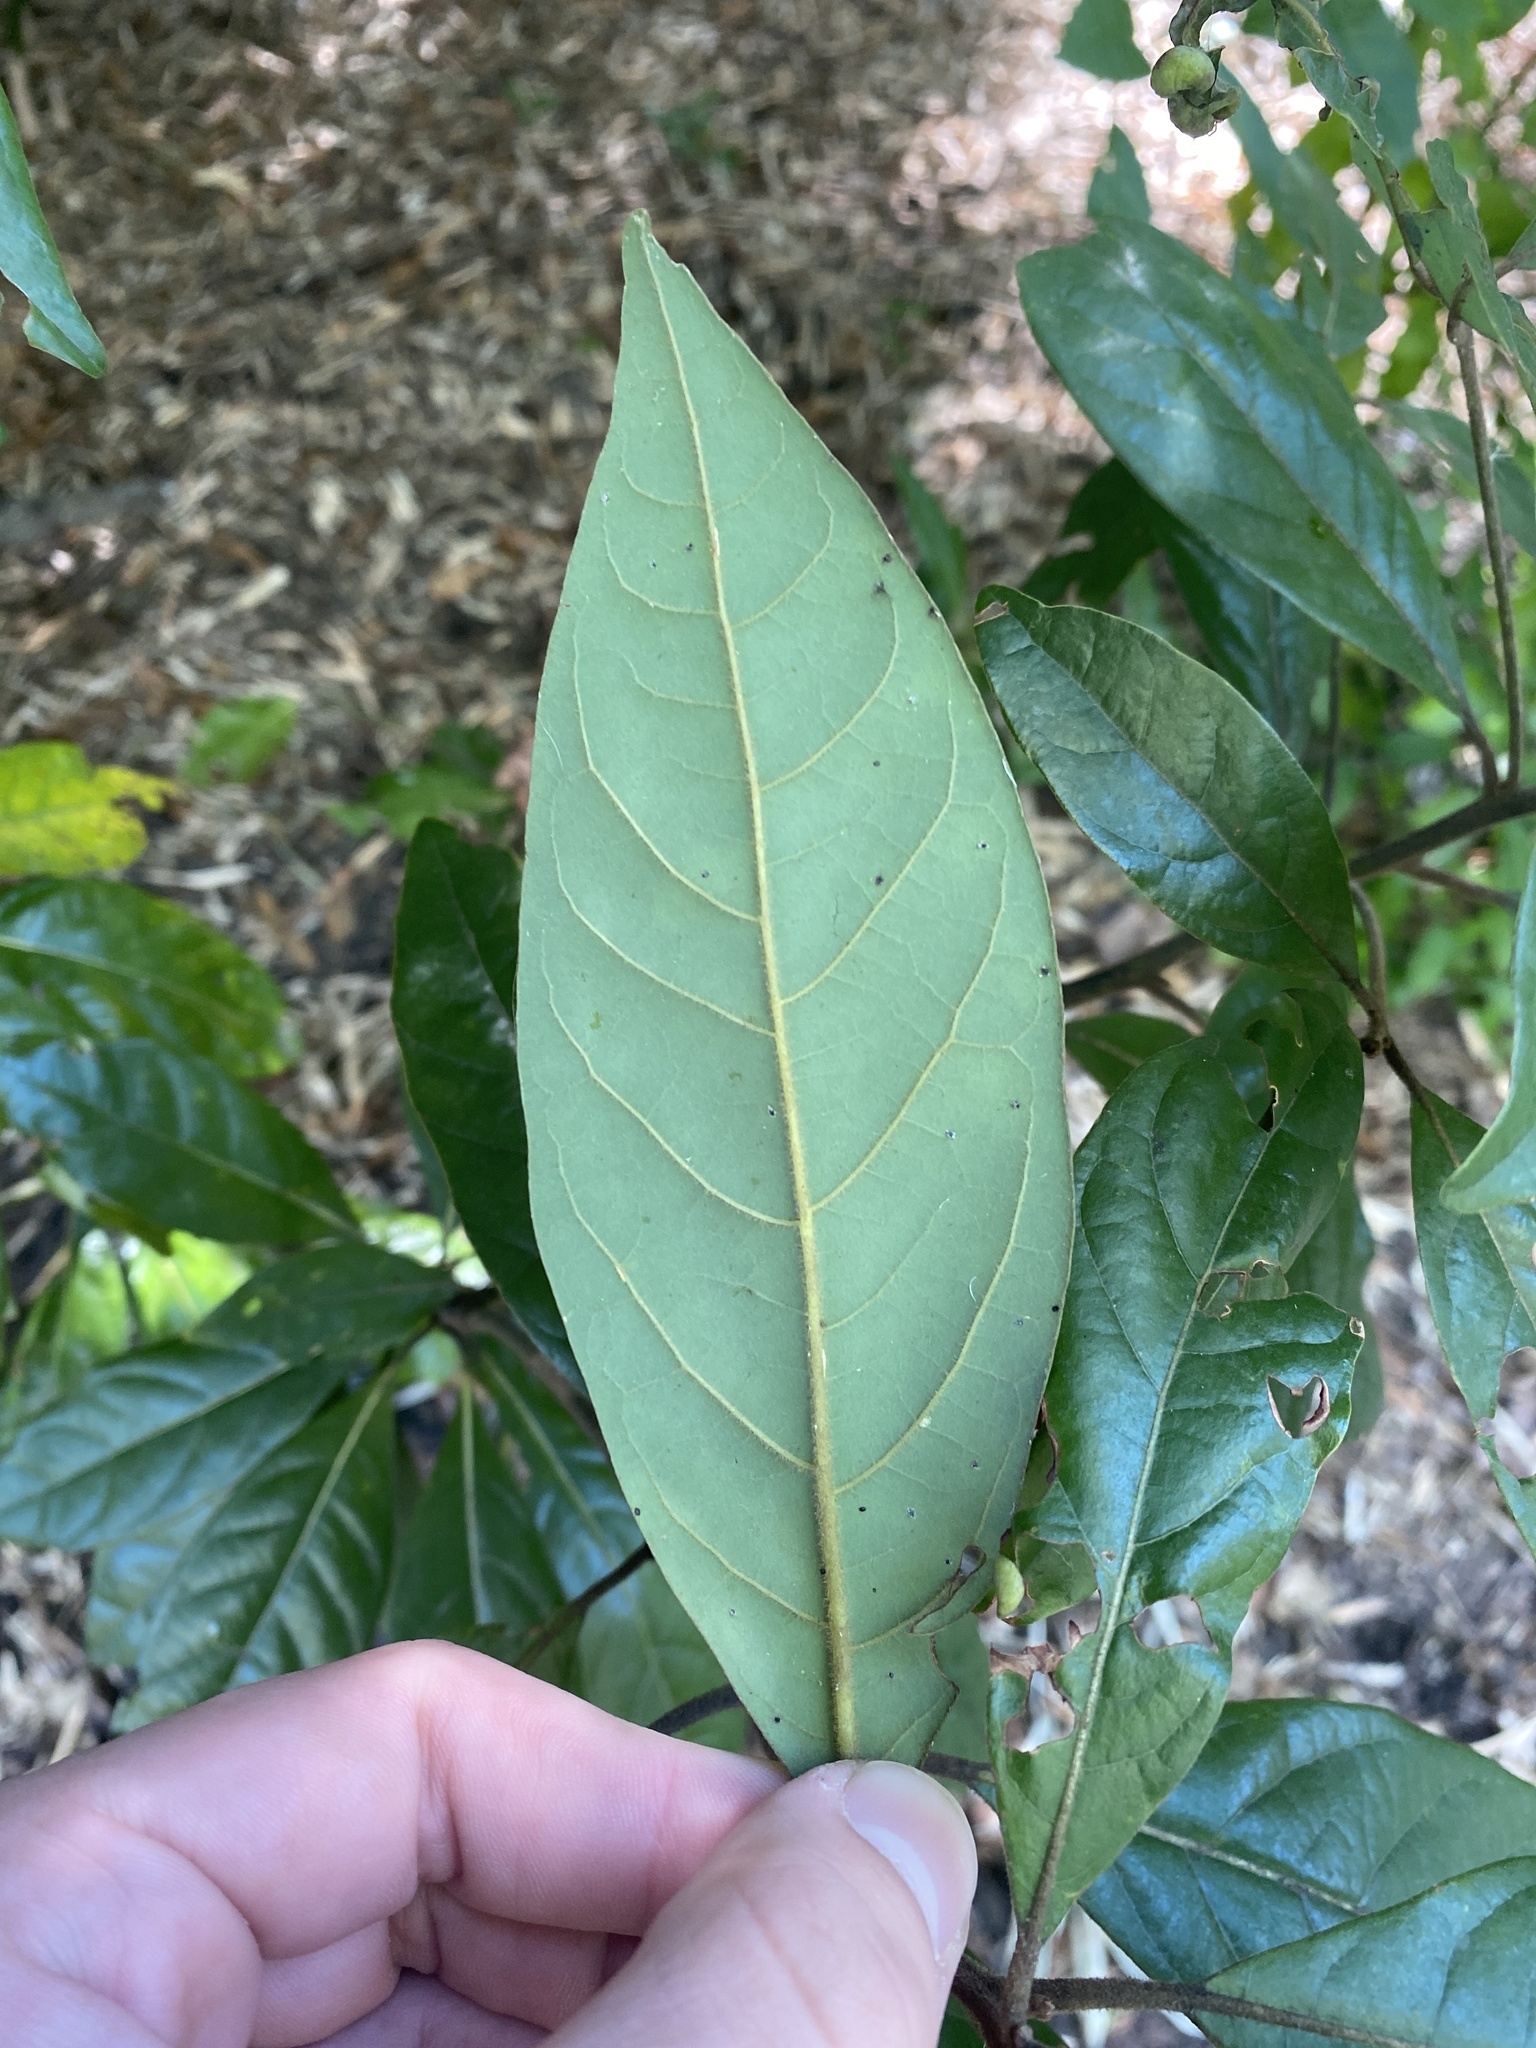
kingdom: Plantae
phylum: Tracheophyta
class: Magnoliopsida
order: Laurales
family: Lauraceae
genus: Persea
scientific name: Persea palustris
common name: Swampbay
